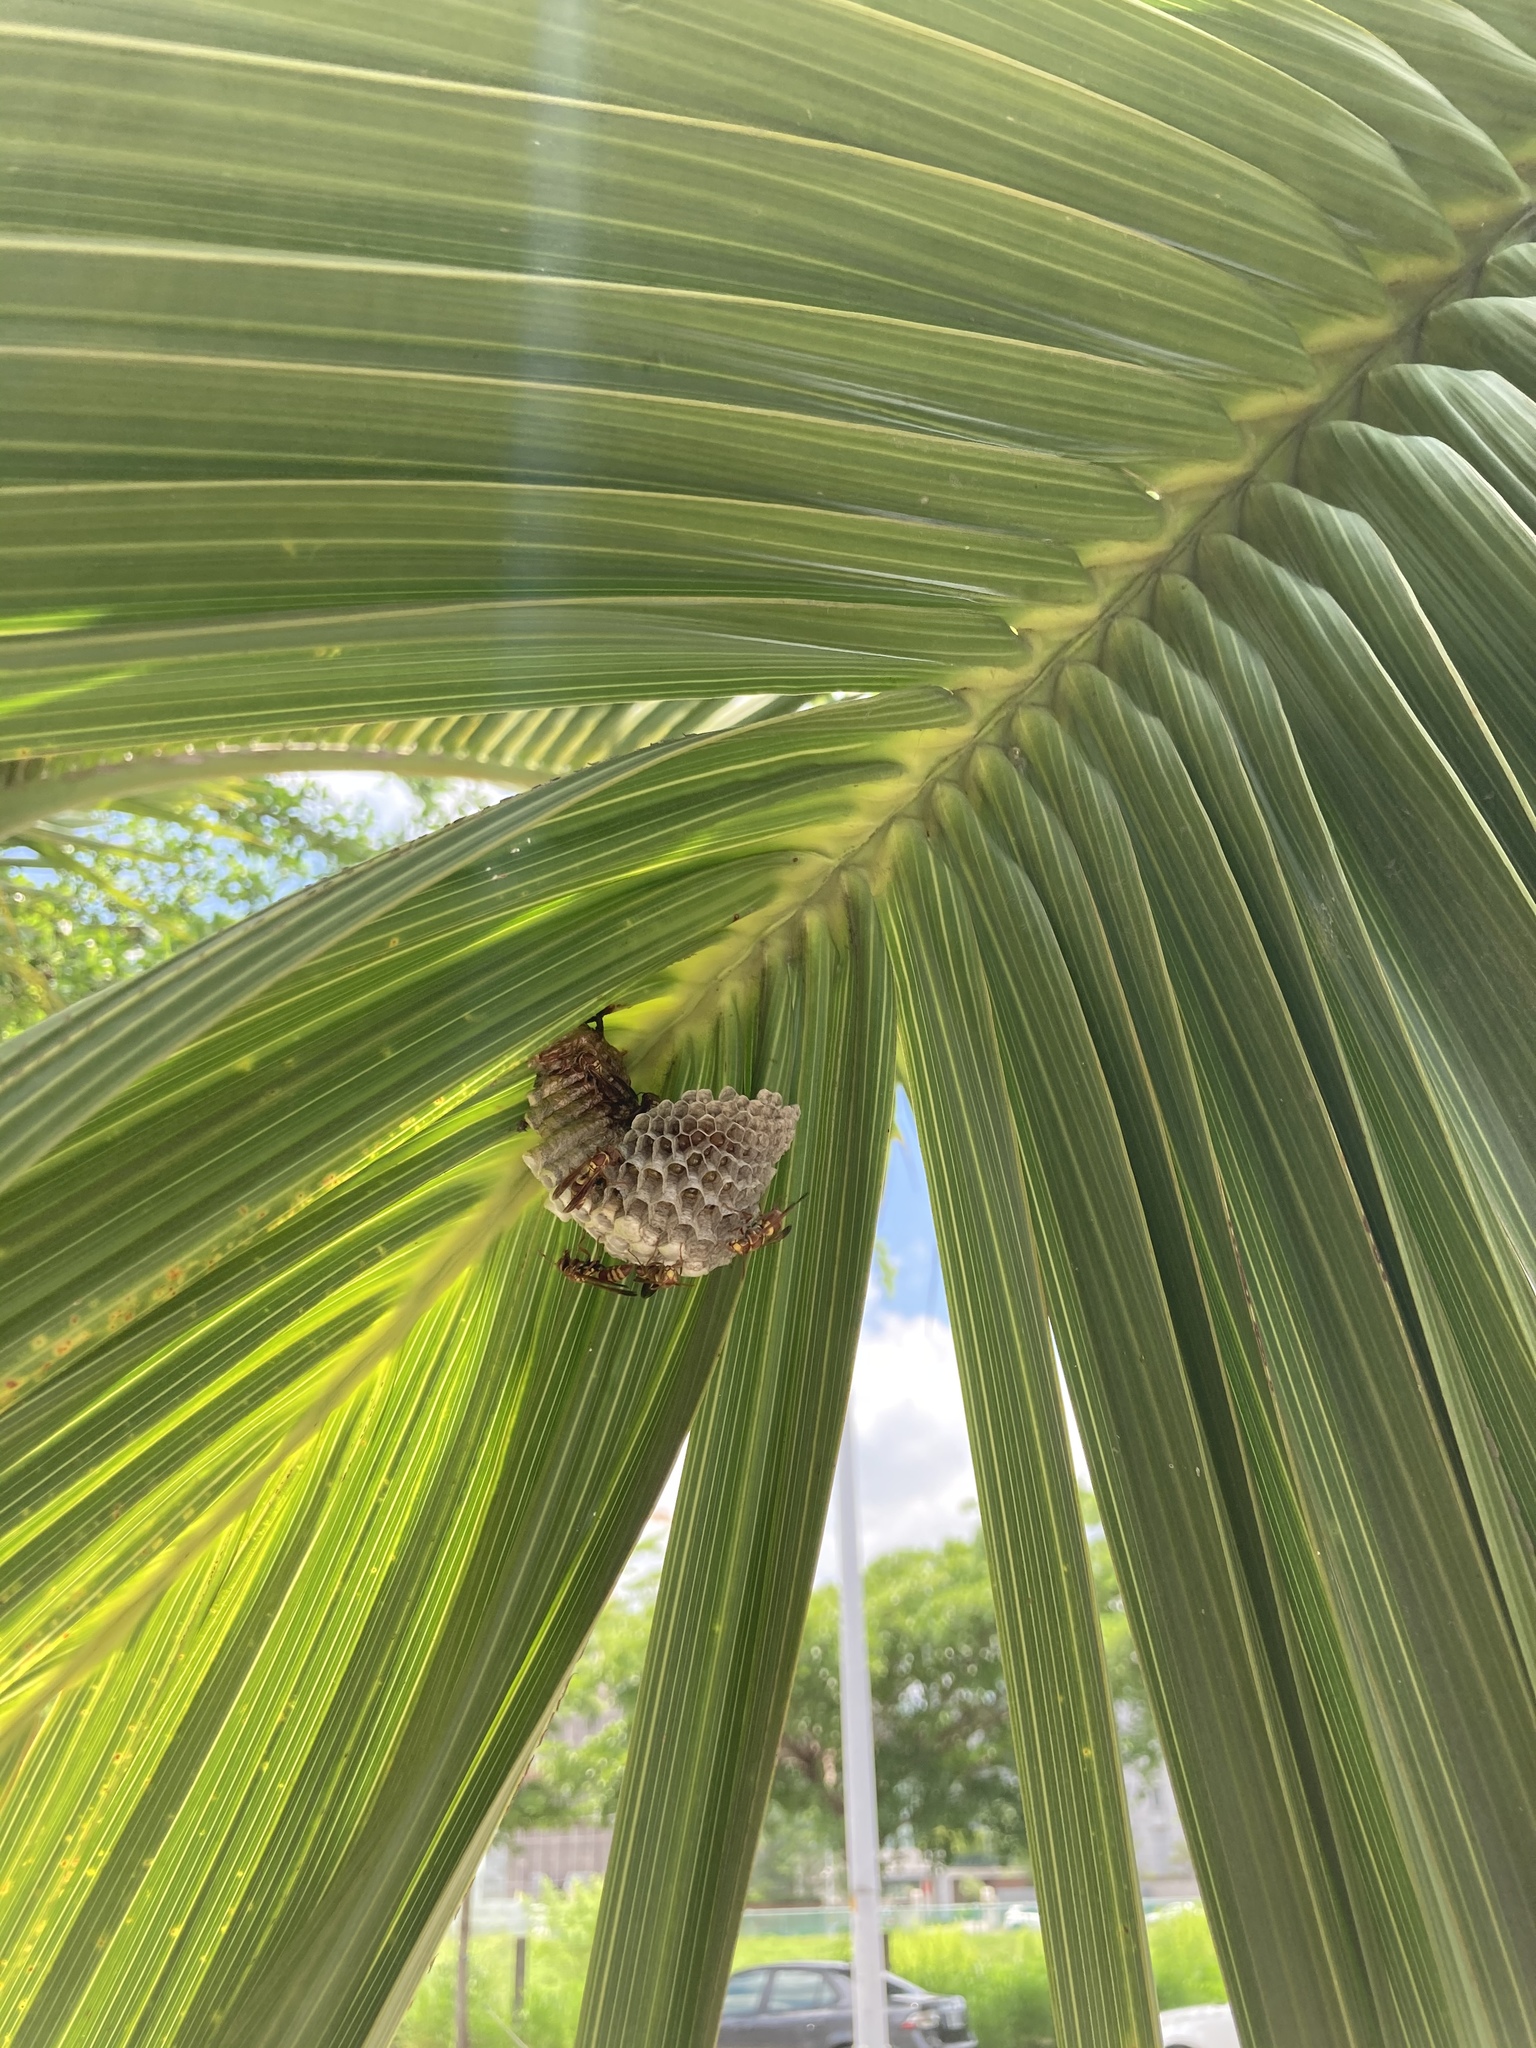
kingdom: Animalia
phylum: Arthropoda
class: Insecta
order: Hymenoptera
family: Eumenidae
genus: Polistes
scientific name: Polistes shirakii
